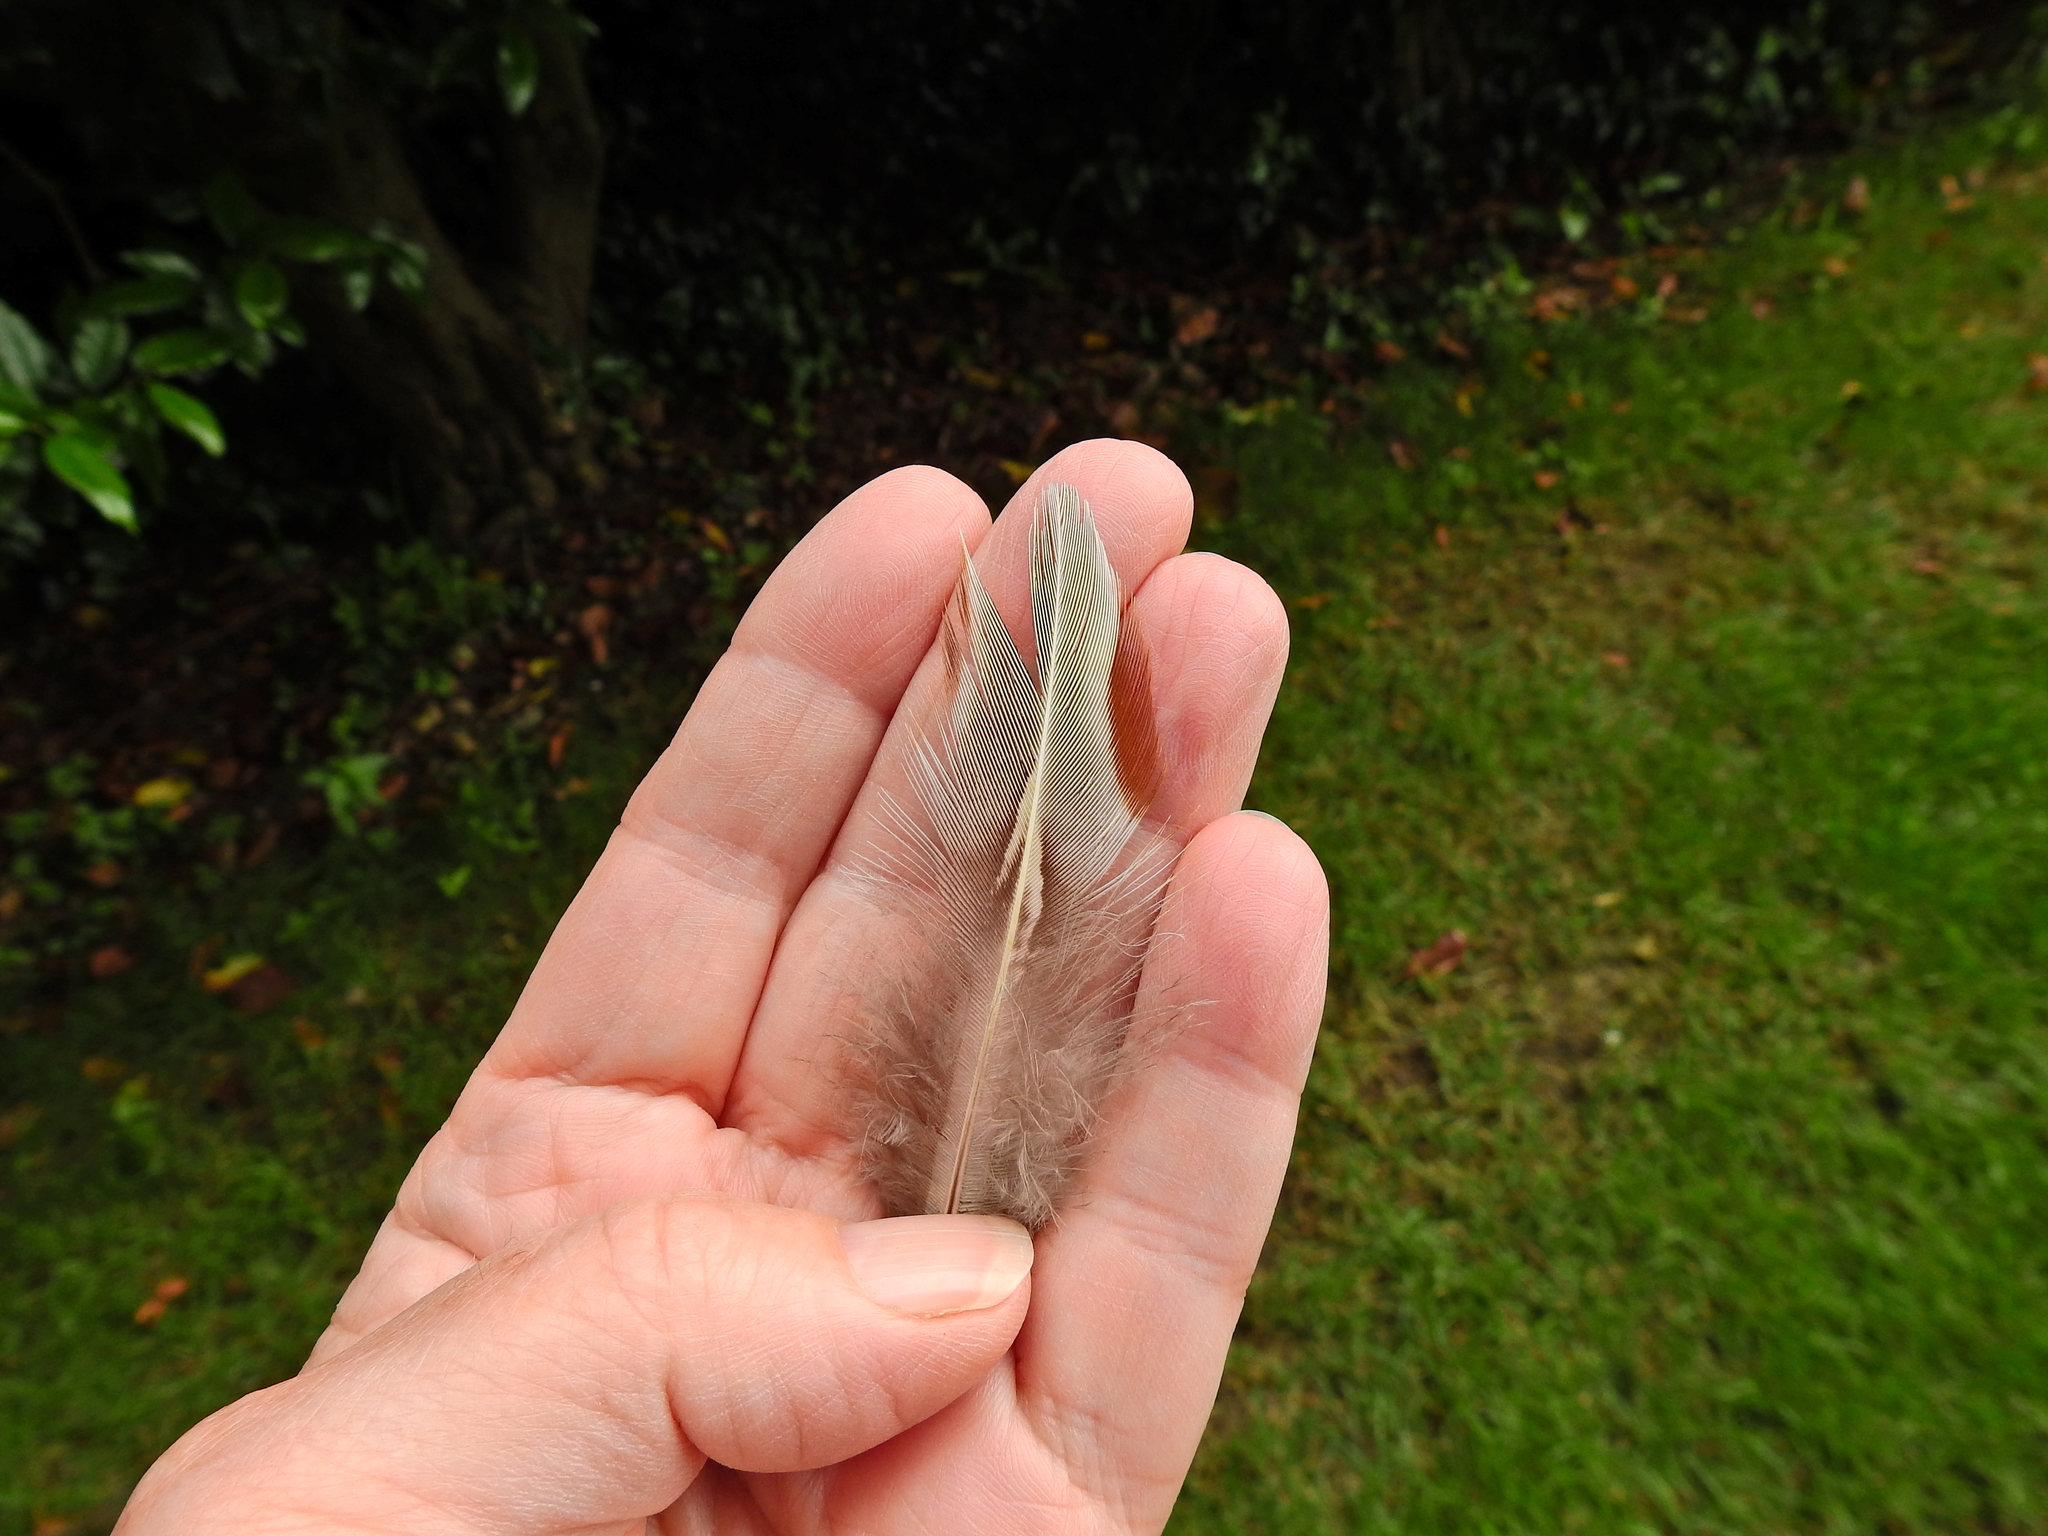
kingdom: Animalia
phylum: Chordata
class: Aves
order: Galliformes
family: Phasianidae
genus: Phasianus
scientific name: Phasianus colchicus
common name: Common pheasant
